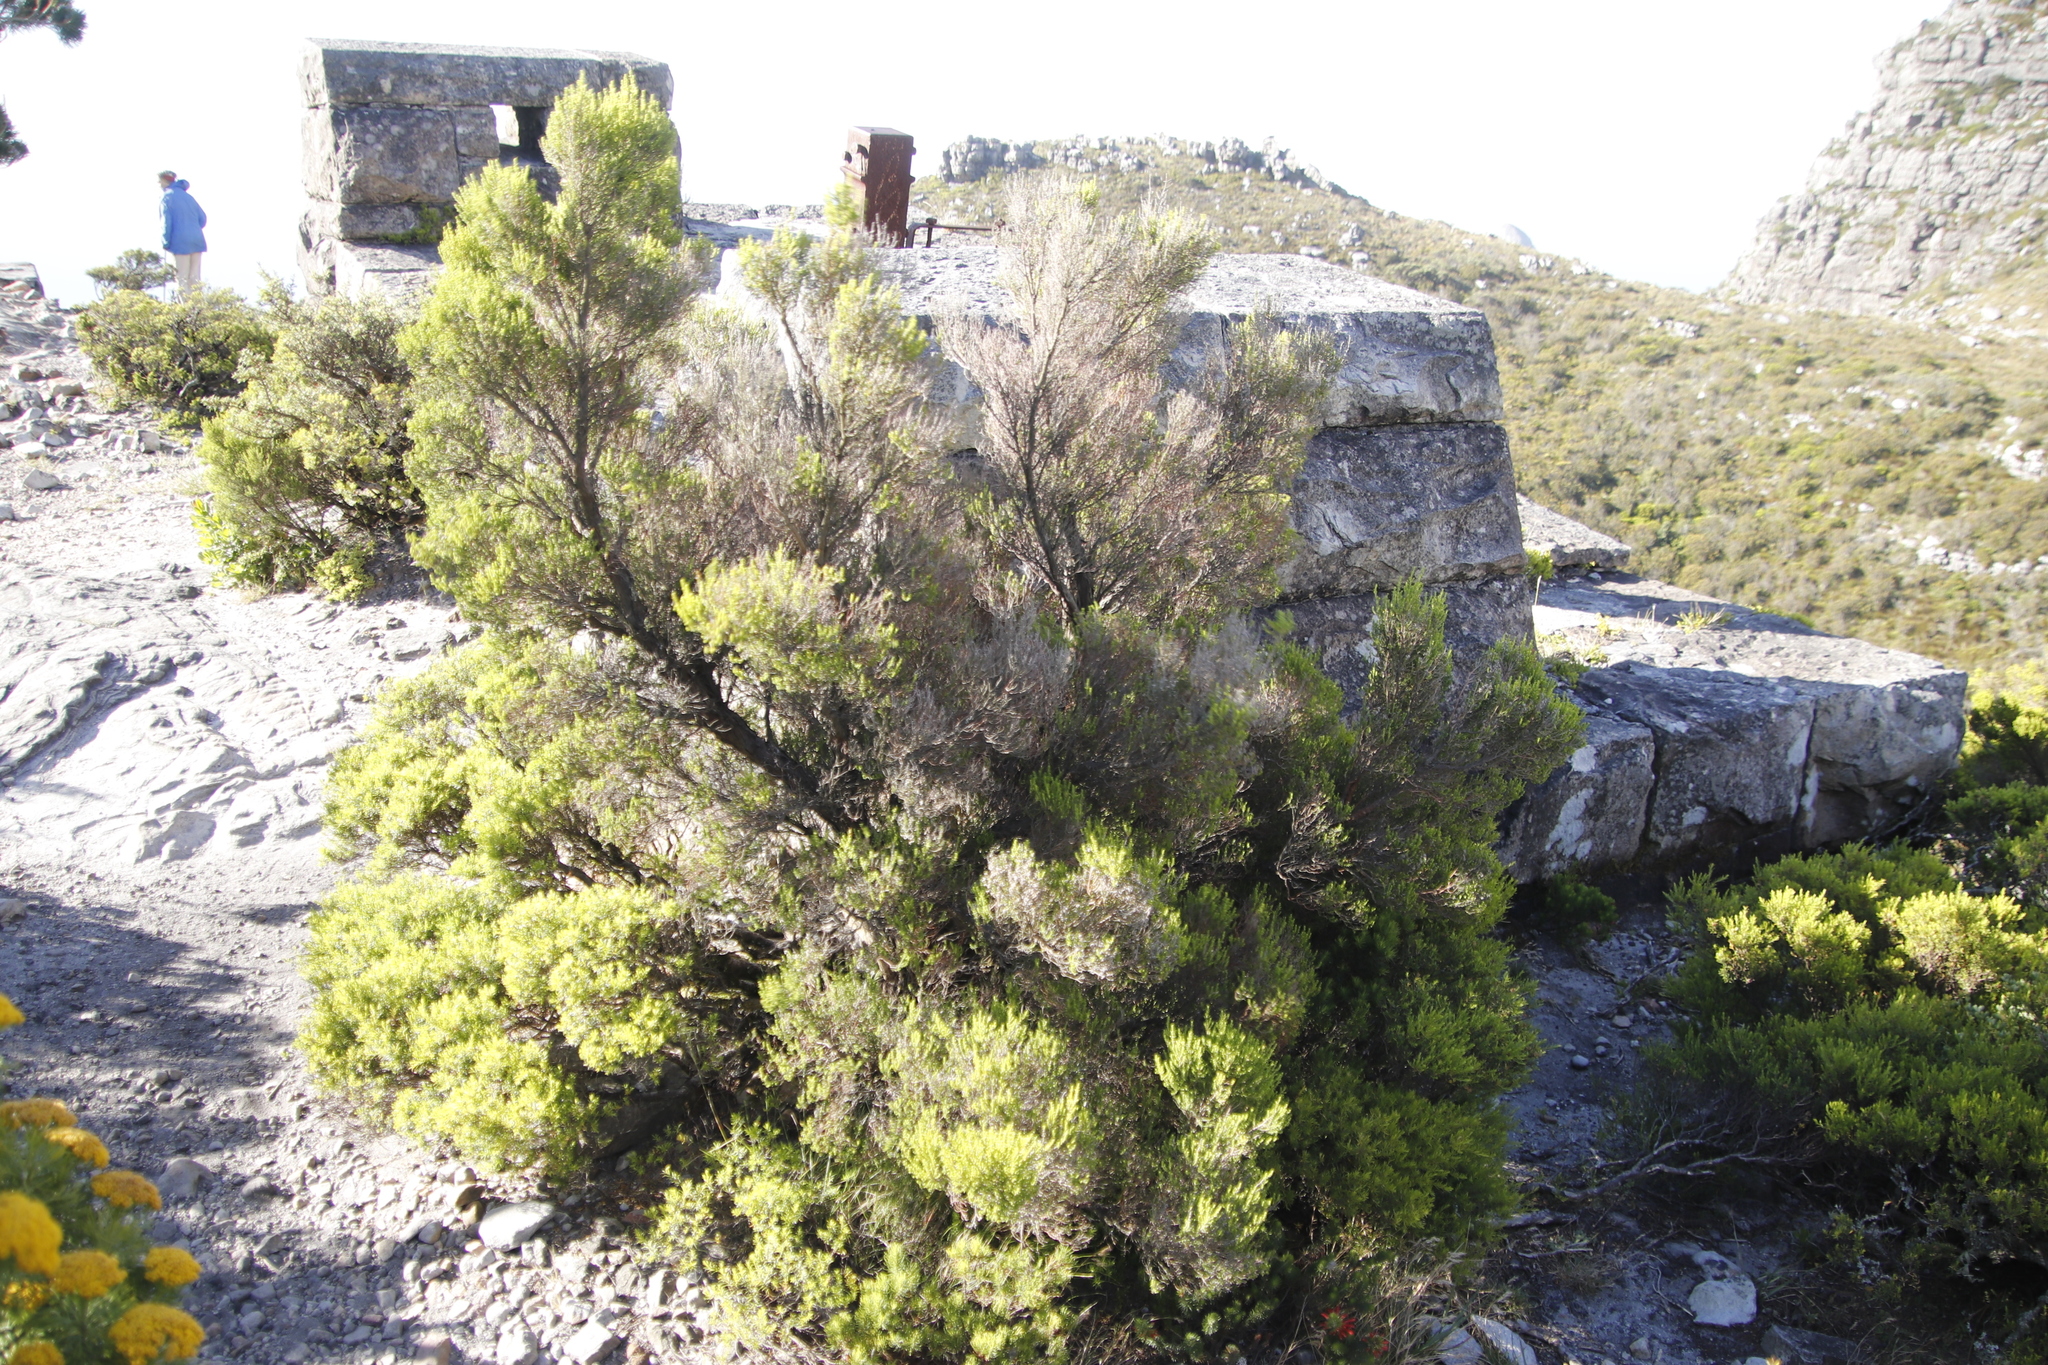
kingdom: Plantae
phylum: Tracheophyta
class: Magnoliopsida
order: Ericales
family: Ericaceae
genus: Erica
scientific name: Erica tristis
